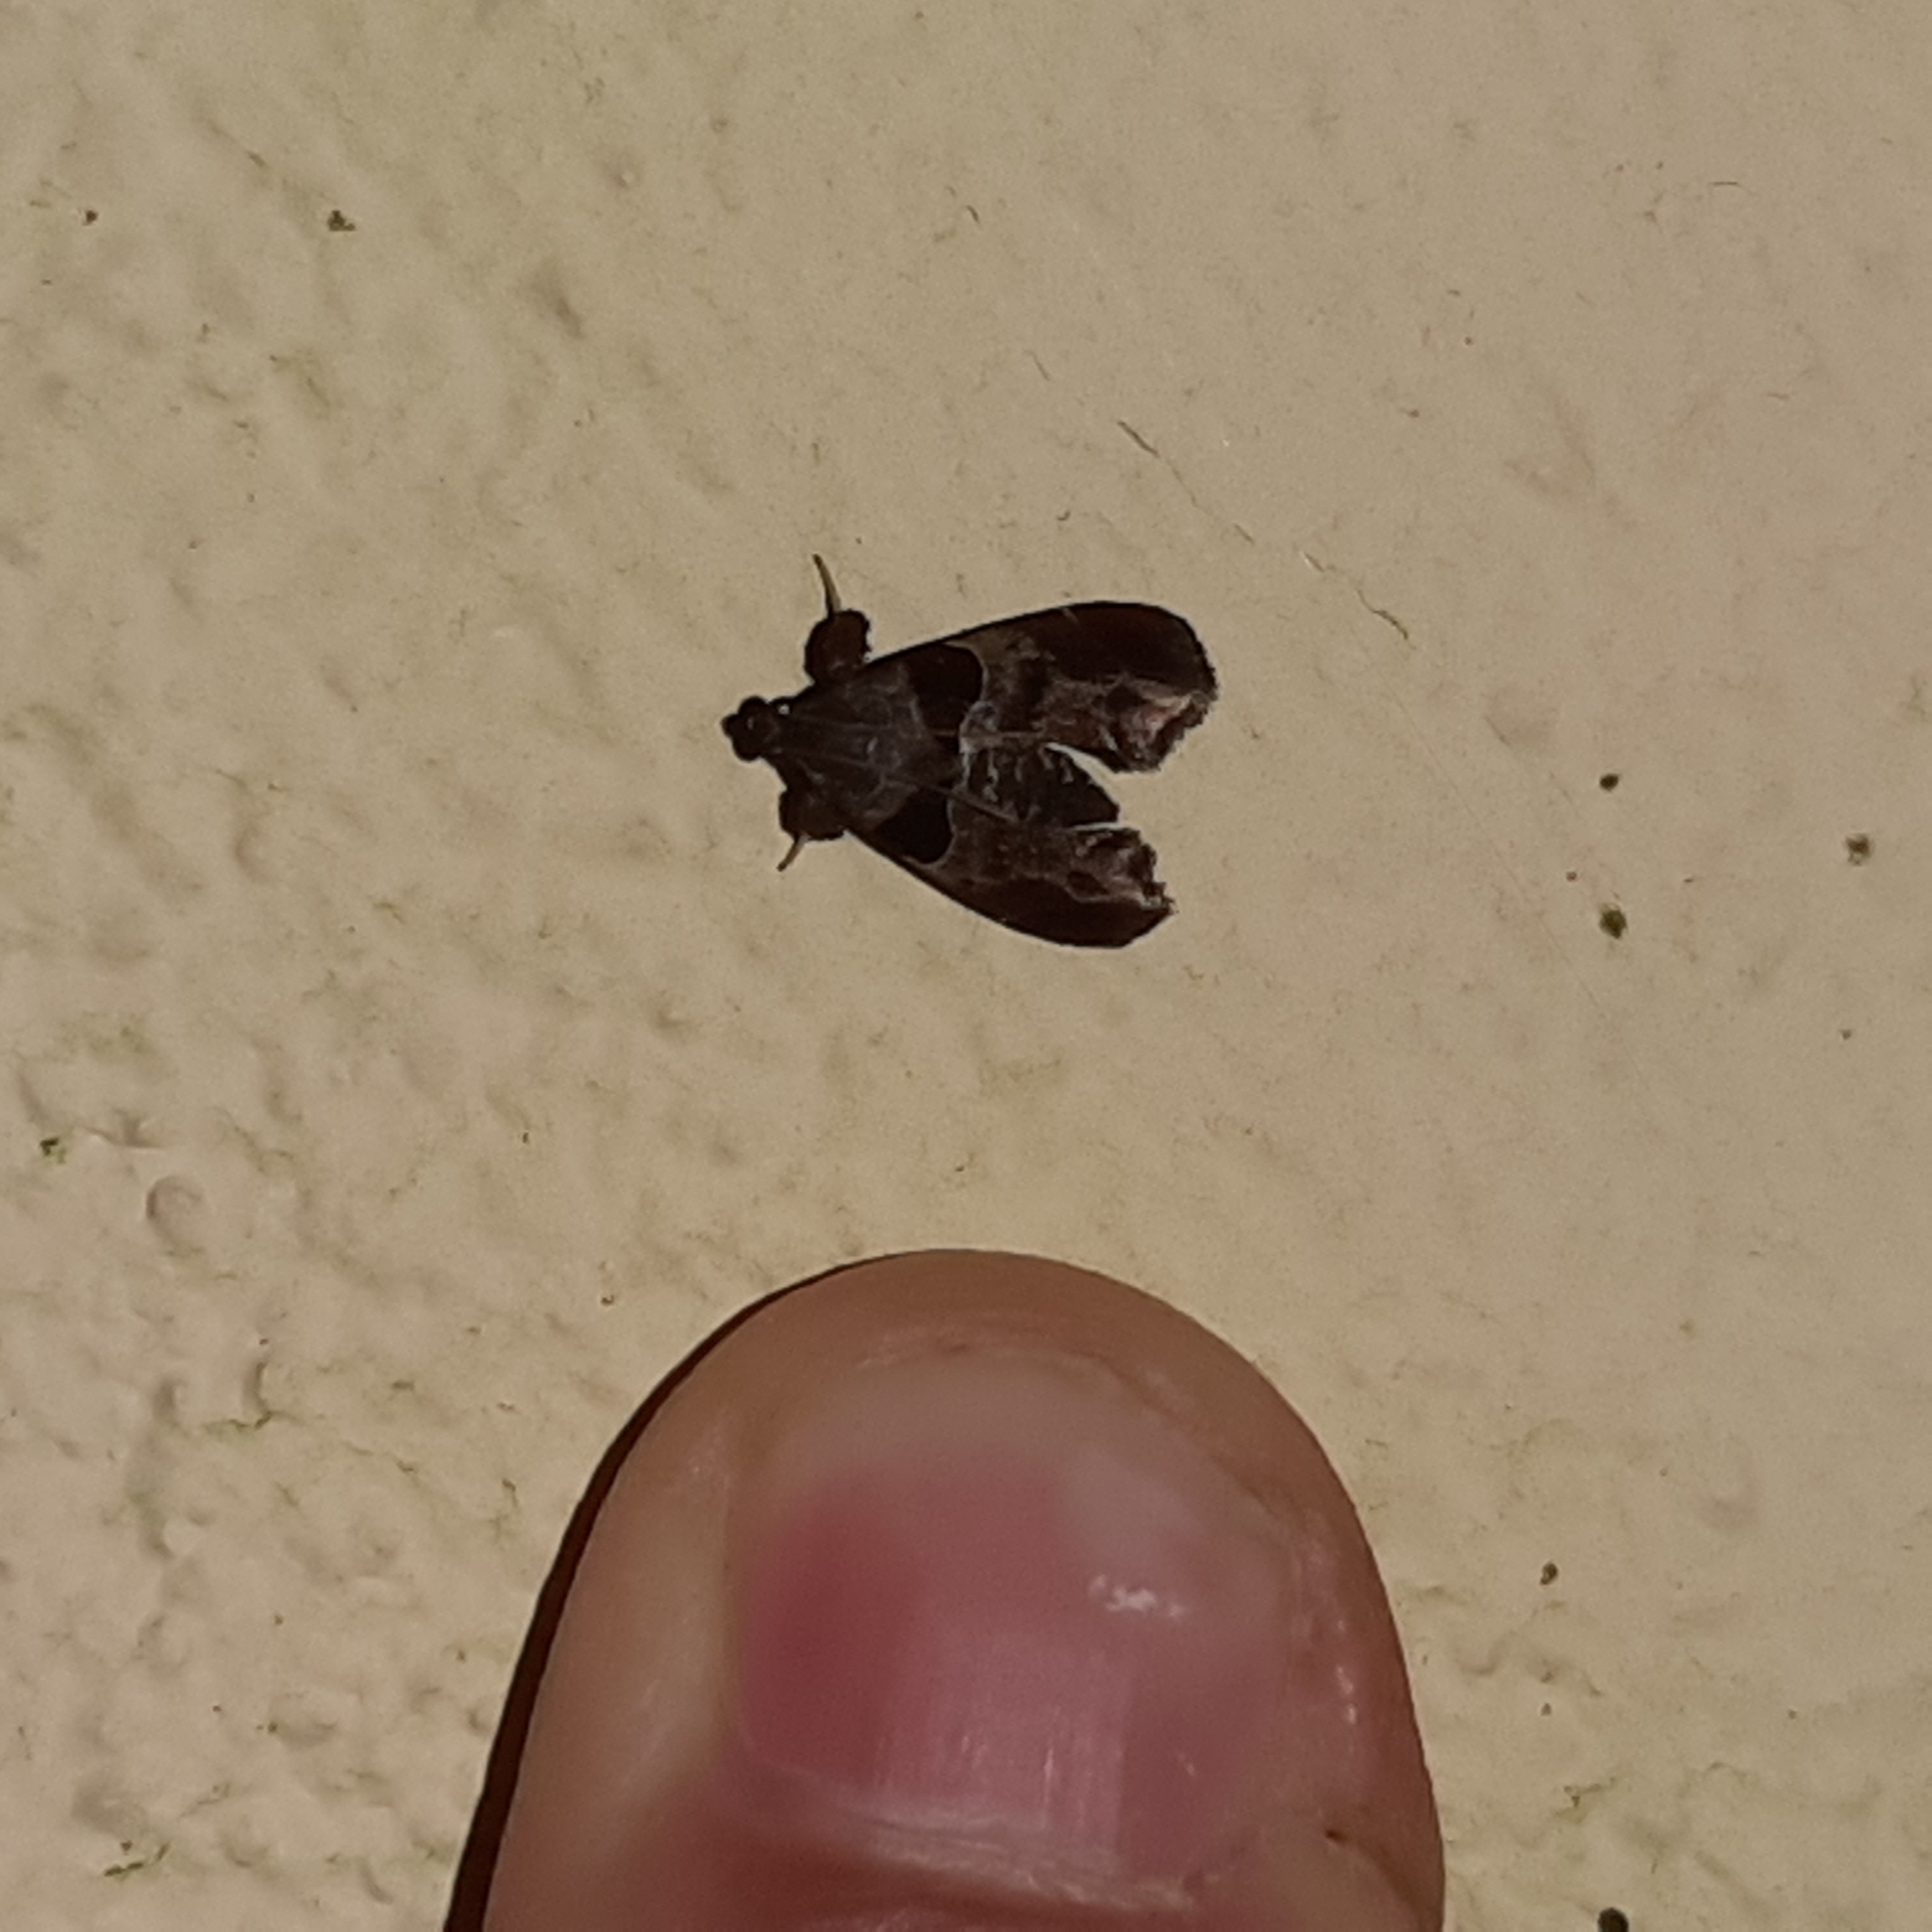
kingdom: Animalia
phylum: Arthropoda
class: Insecta
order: Lepidoptera
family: Pyralidae
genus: Tosale
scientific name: Tosale oviplagalis
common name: Dimorphic tosale moth
